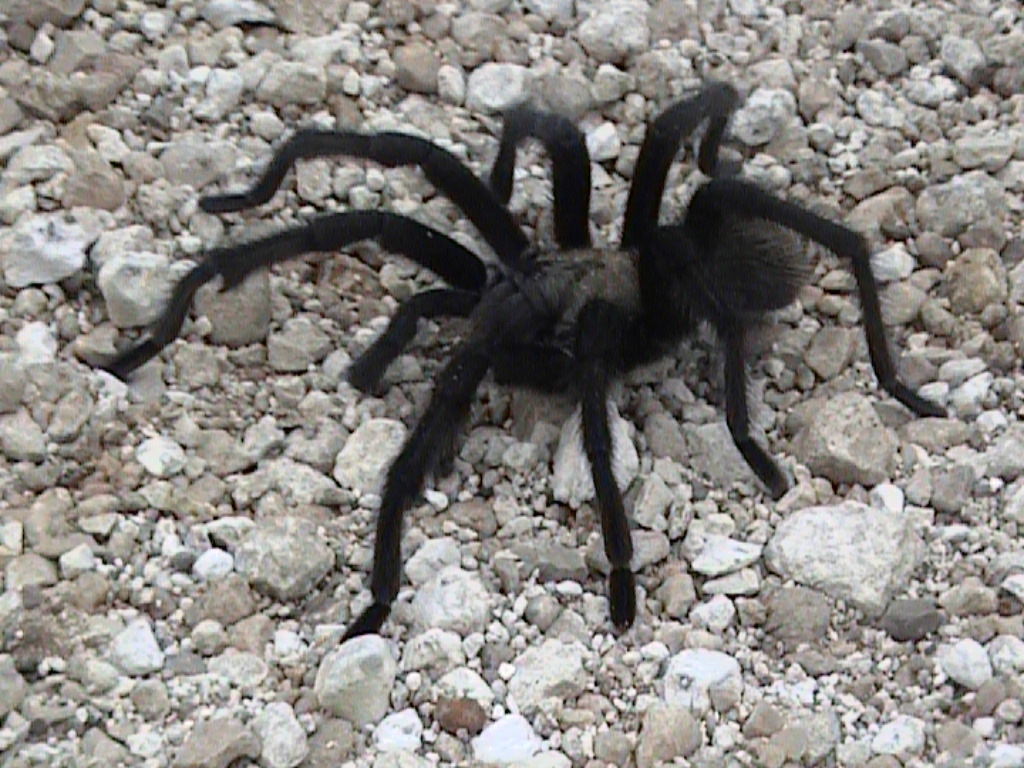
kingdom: Animalia
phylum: Arthropoda
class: Arachnida
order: Araneae
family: Theraphosidae
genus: Aphonopelma
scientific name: Aphonopelma hentzi
